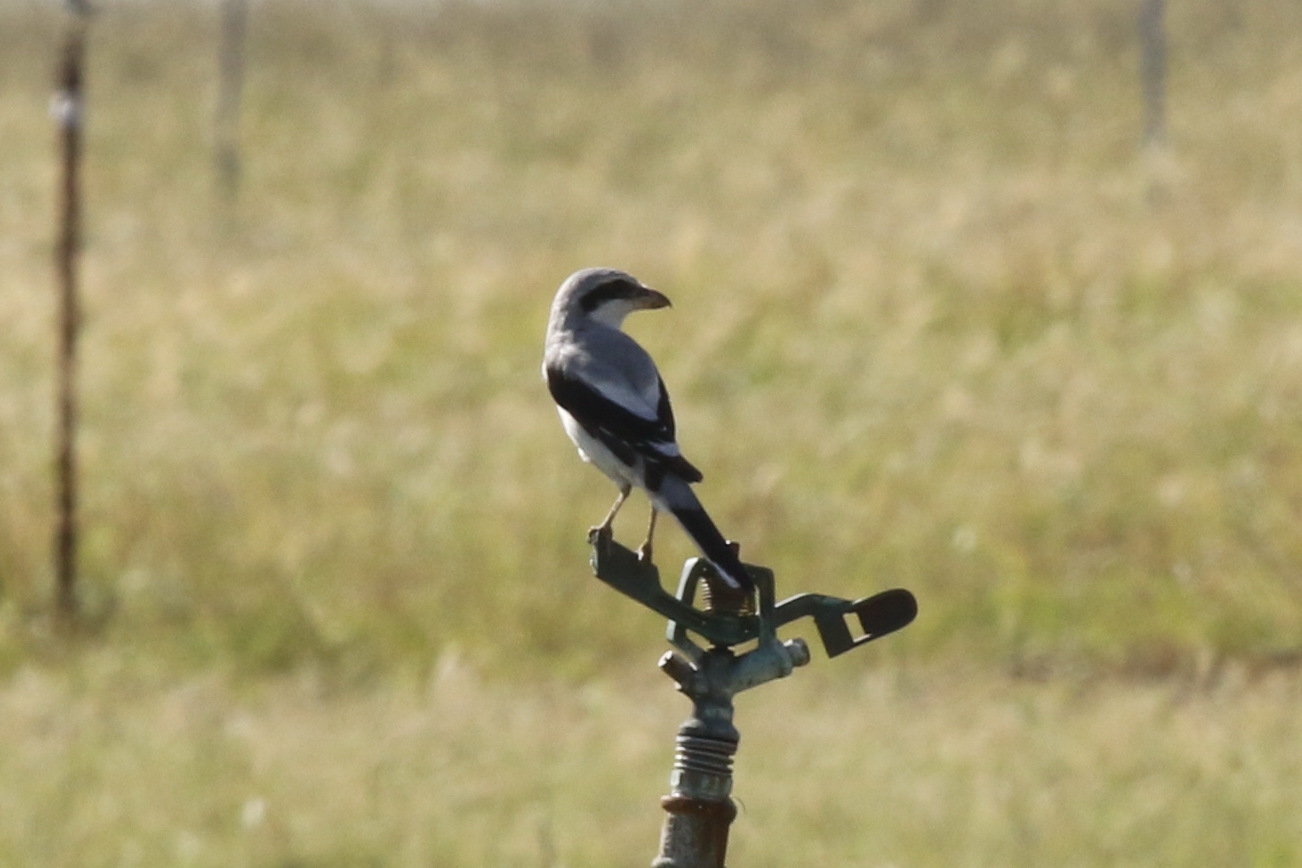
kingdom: Animalia
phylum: Chordata
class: Aves
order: Passeriformes
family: Laniidae
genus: Lanius
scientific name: Lanius excubitor
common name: Great grey shrike
